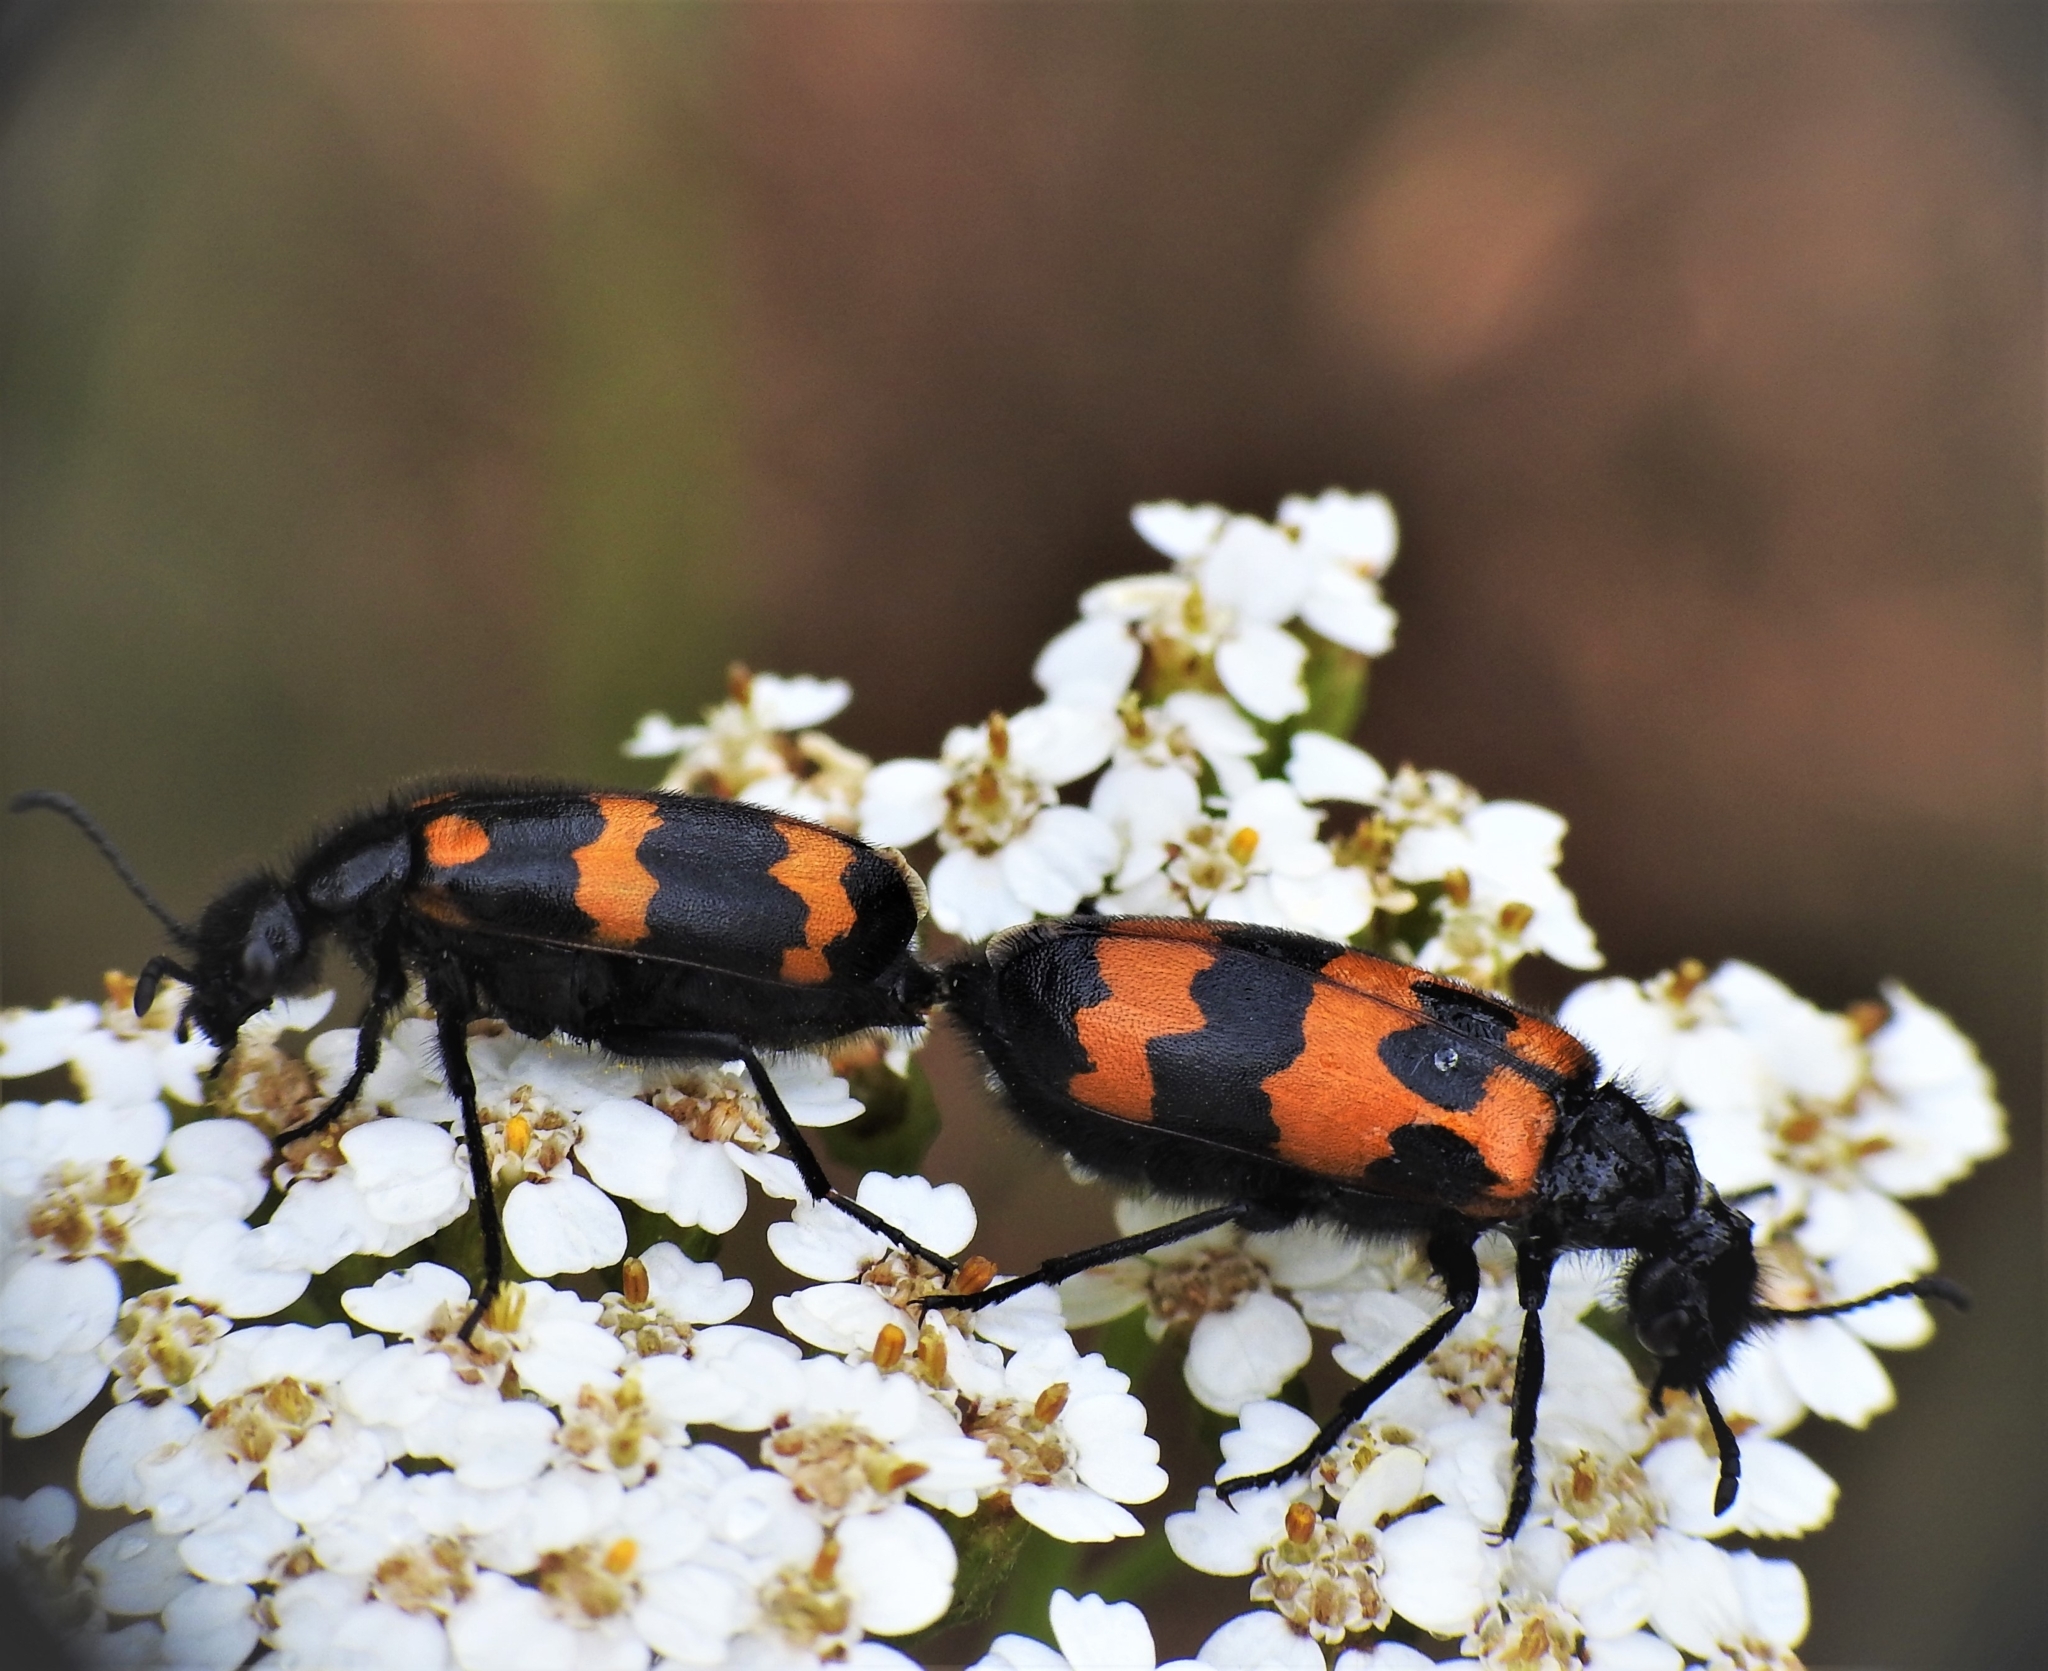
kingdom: Animalia
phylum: Arthropoda
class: Insecta
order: Coleoptera
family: Meloidae
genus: Mylabris
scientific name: Mylabris variabilis
